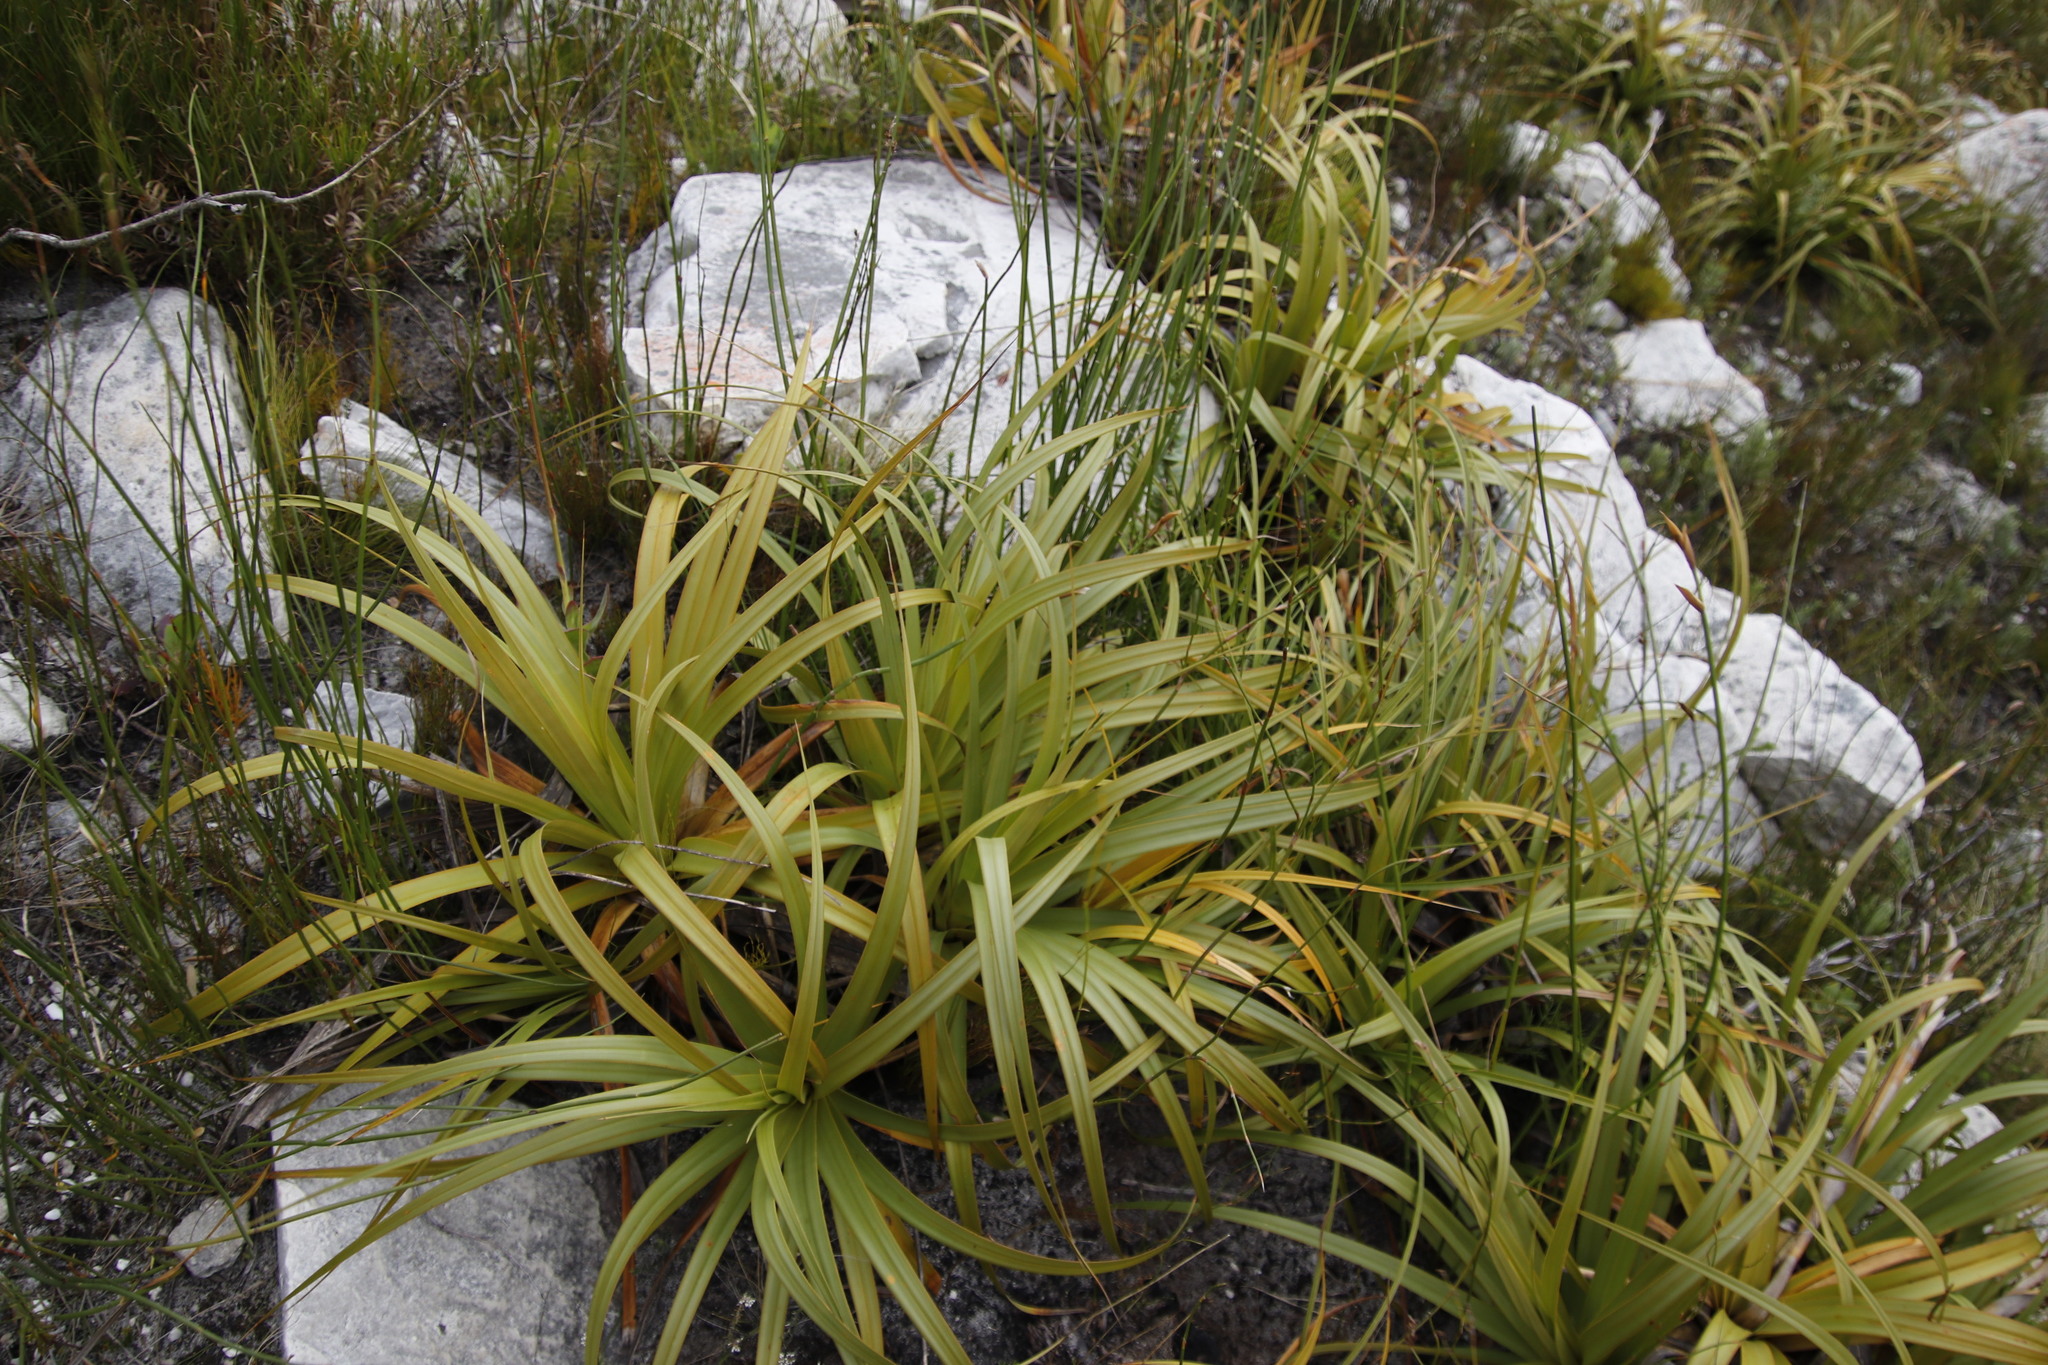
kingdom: Plantae
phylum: Tracheophyta
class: Liliopsida
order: Poales
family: Cyperaceae
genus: Tetraria
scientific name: Tetraria thermalis
